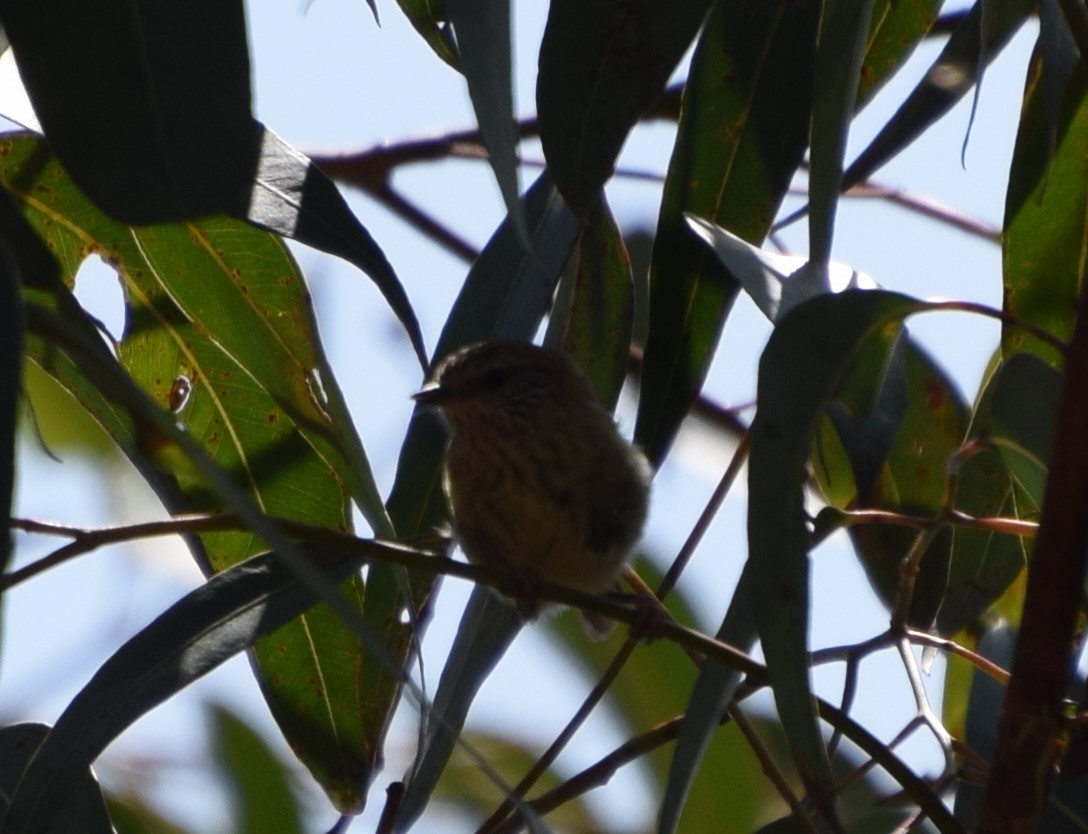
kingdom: Animalia
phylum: Chordata
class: Aves
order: Passeriformes
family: Acanthizidae
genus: Acanthiza
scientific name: Acanthiza lineata
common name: Striated thornbill
